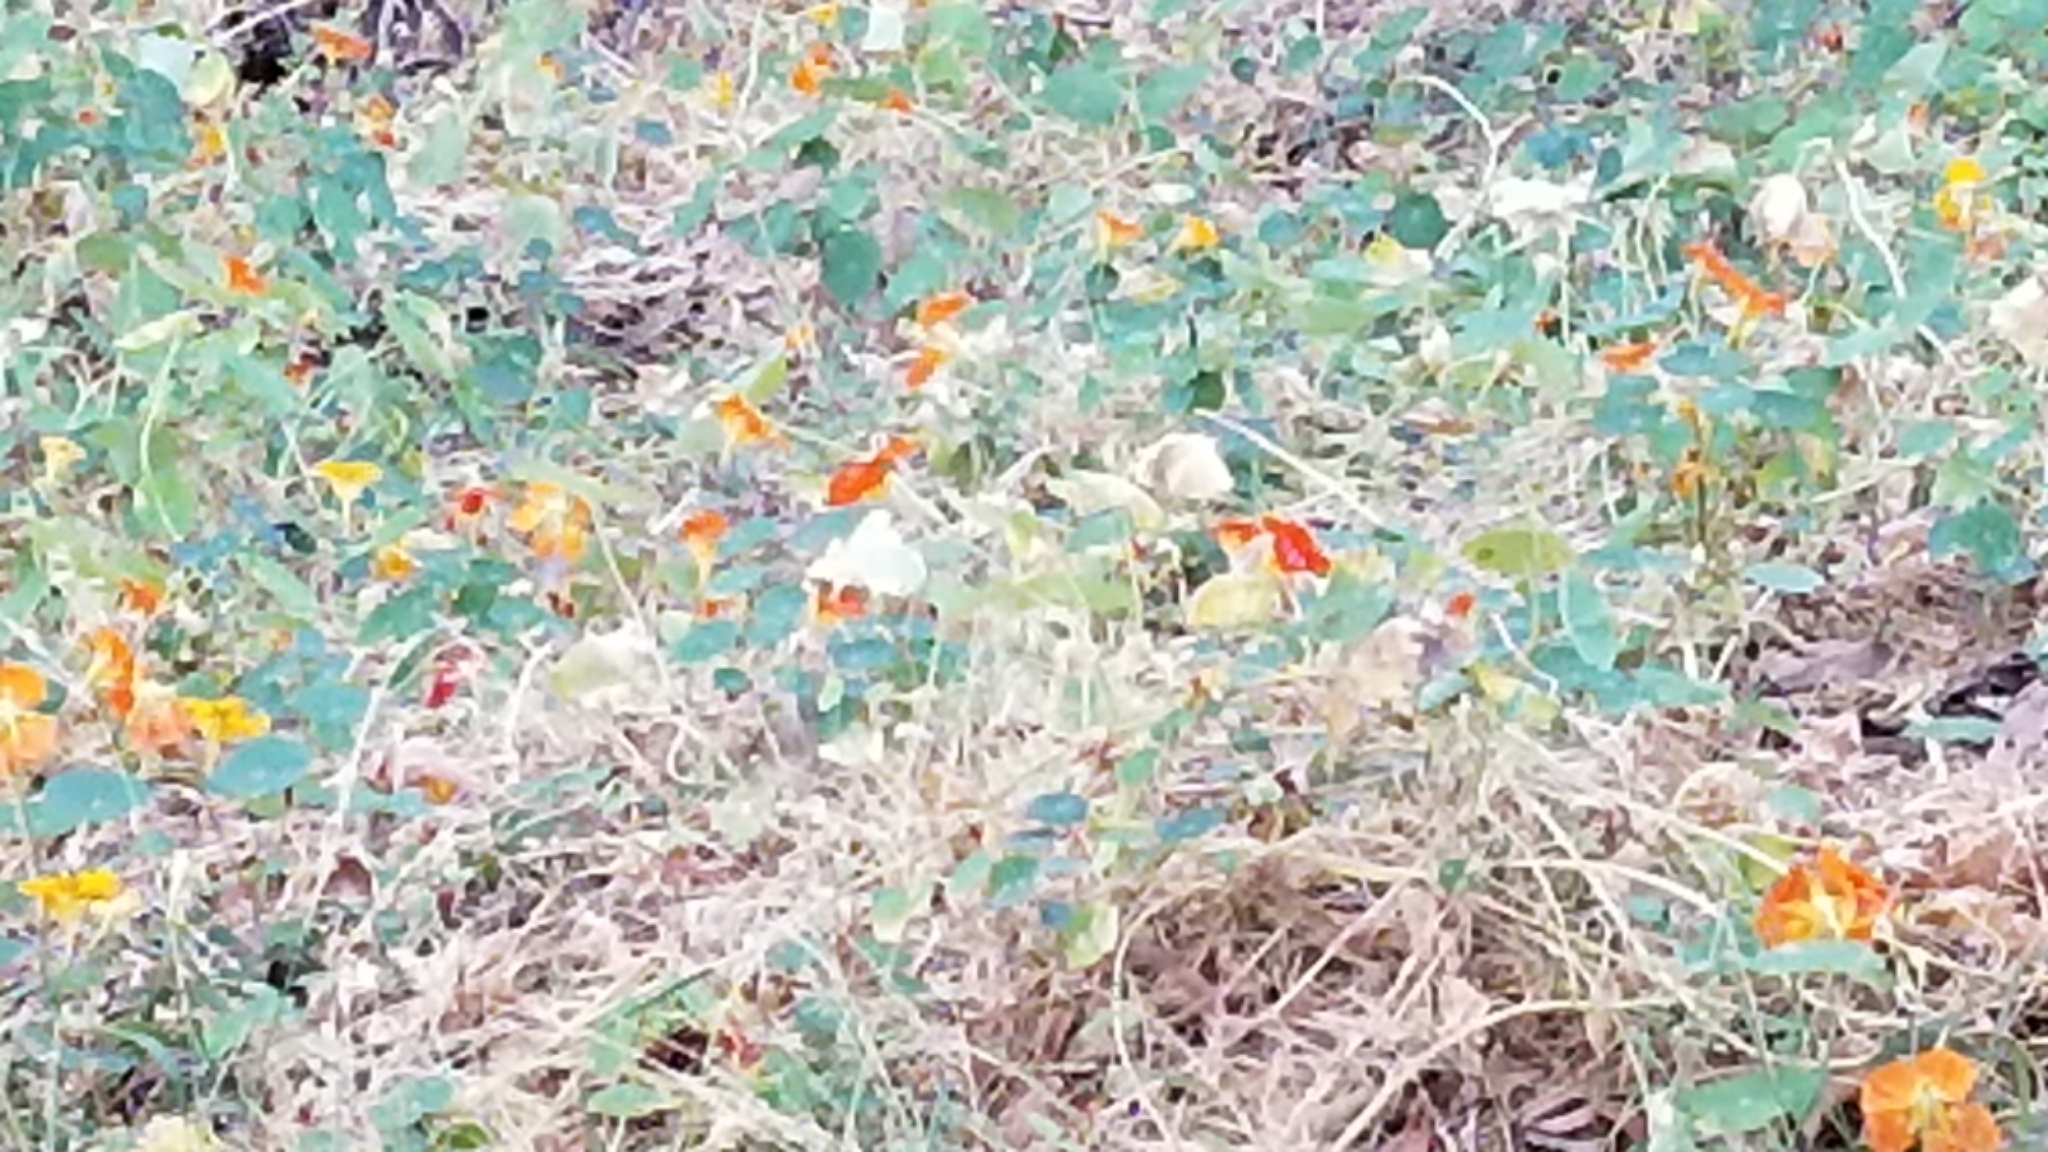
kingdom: Plantae
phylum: Tracheophyta
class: Magnoliopsida
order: Brassicales
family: Tropaeolaceae
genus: Tropaeolum
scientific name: Tropaeolum majus
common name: Nasturtium
